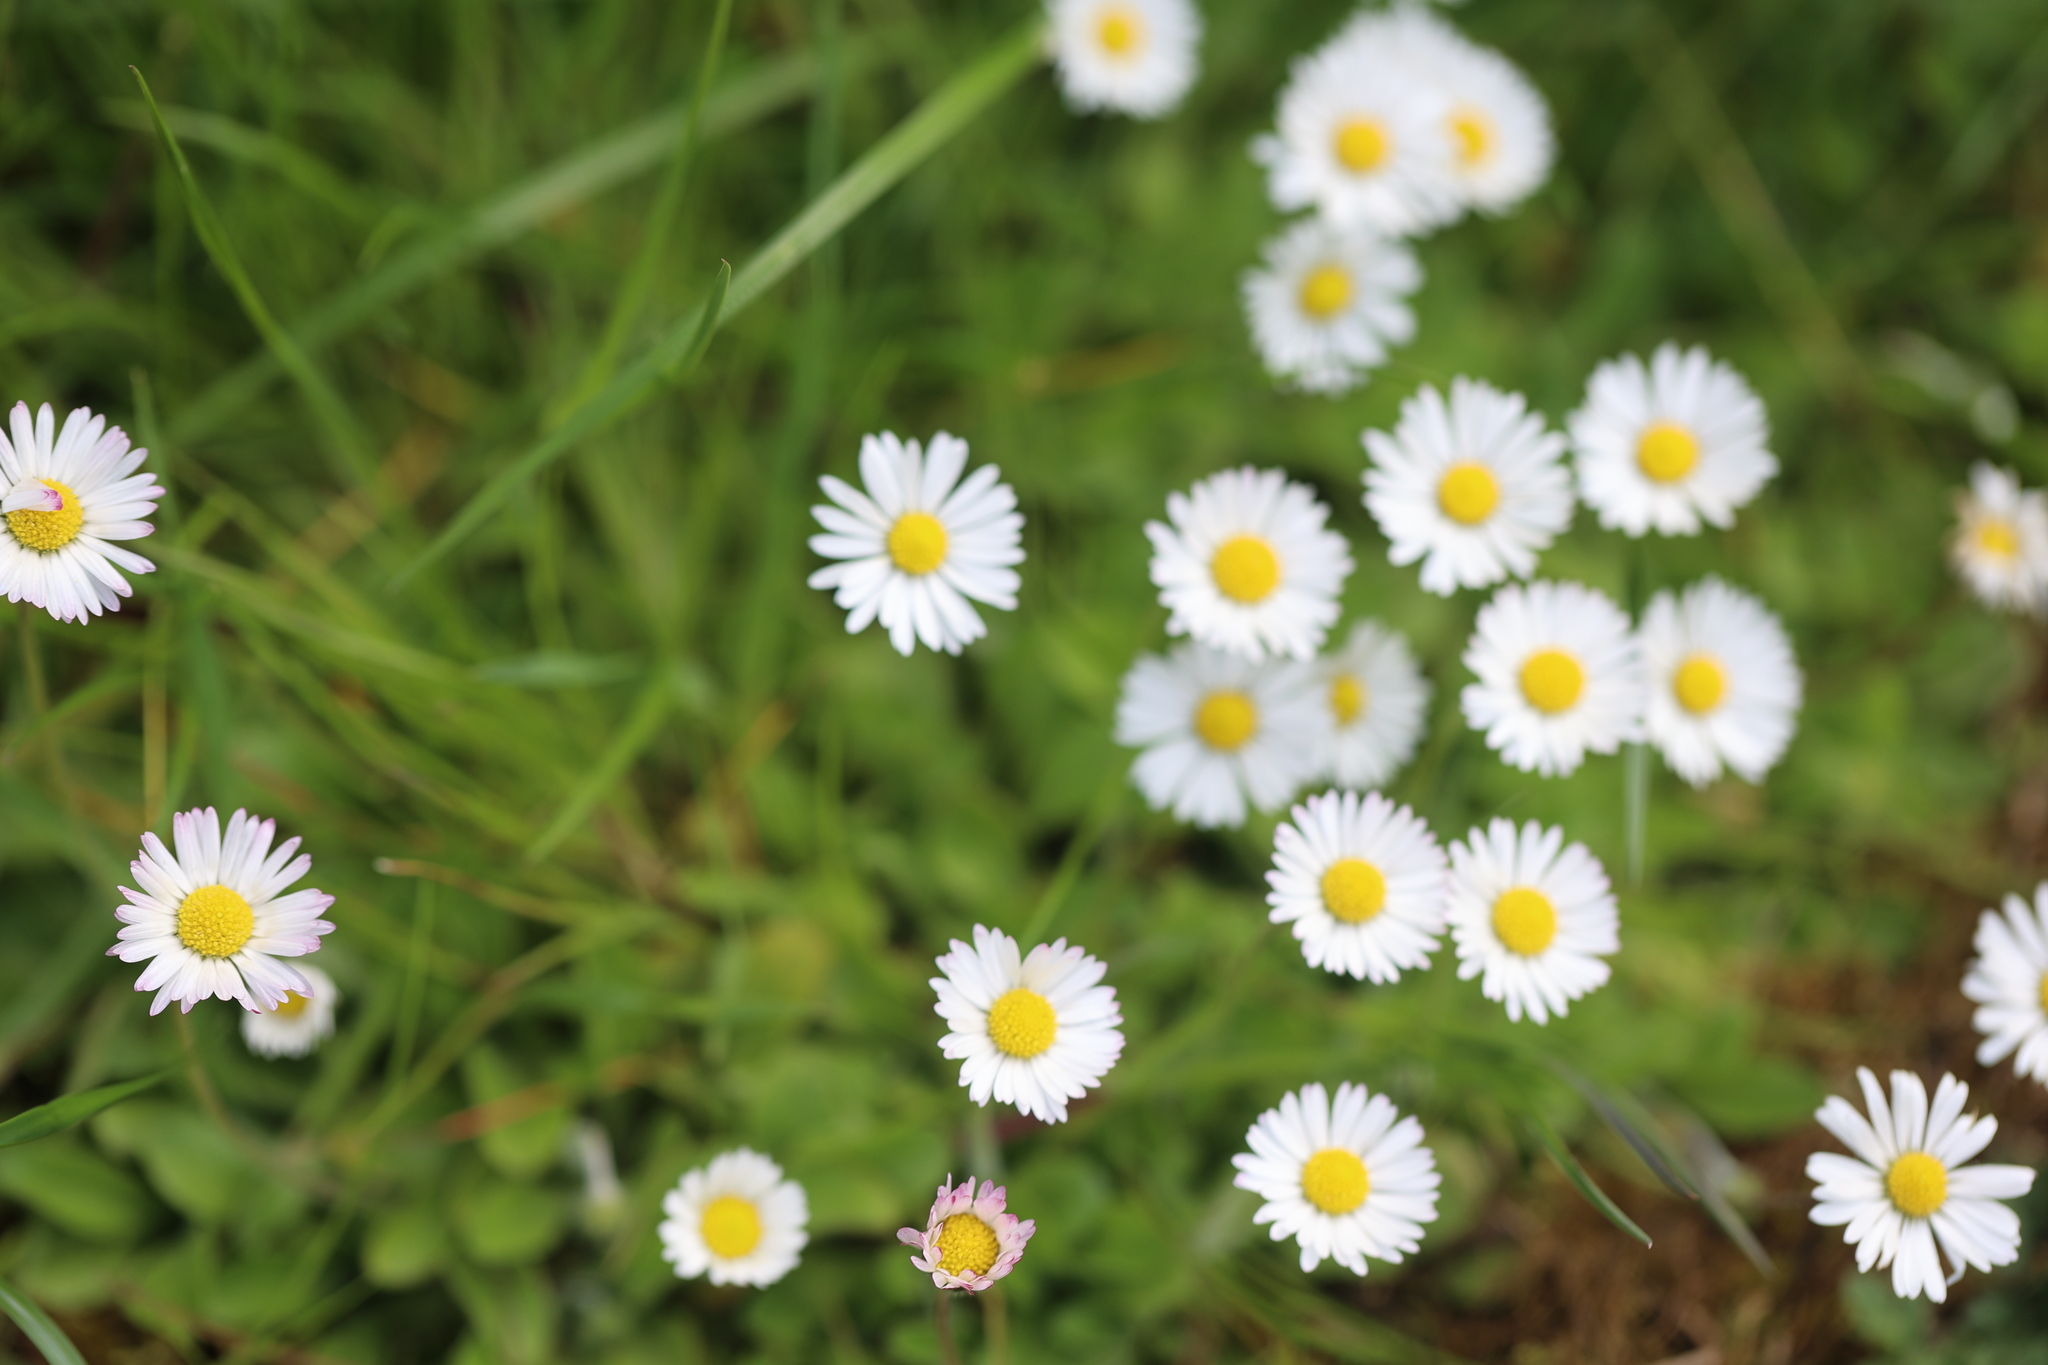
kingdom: Plantae
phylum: Tracheophyta
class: Magnoliopsida
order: Asterales
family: Asteraceae
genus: Bellis
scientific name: Bellis perennis
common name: Lawndaisy
